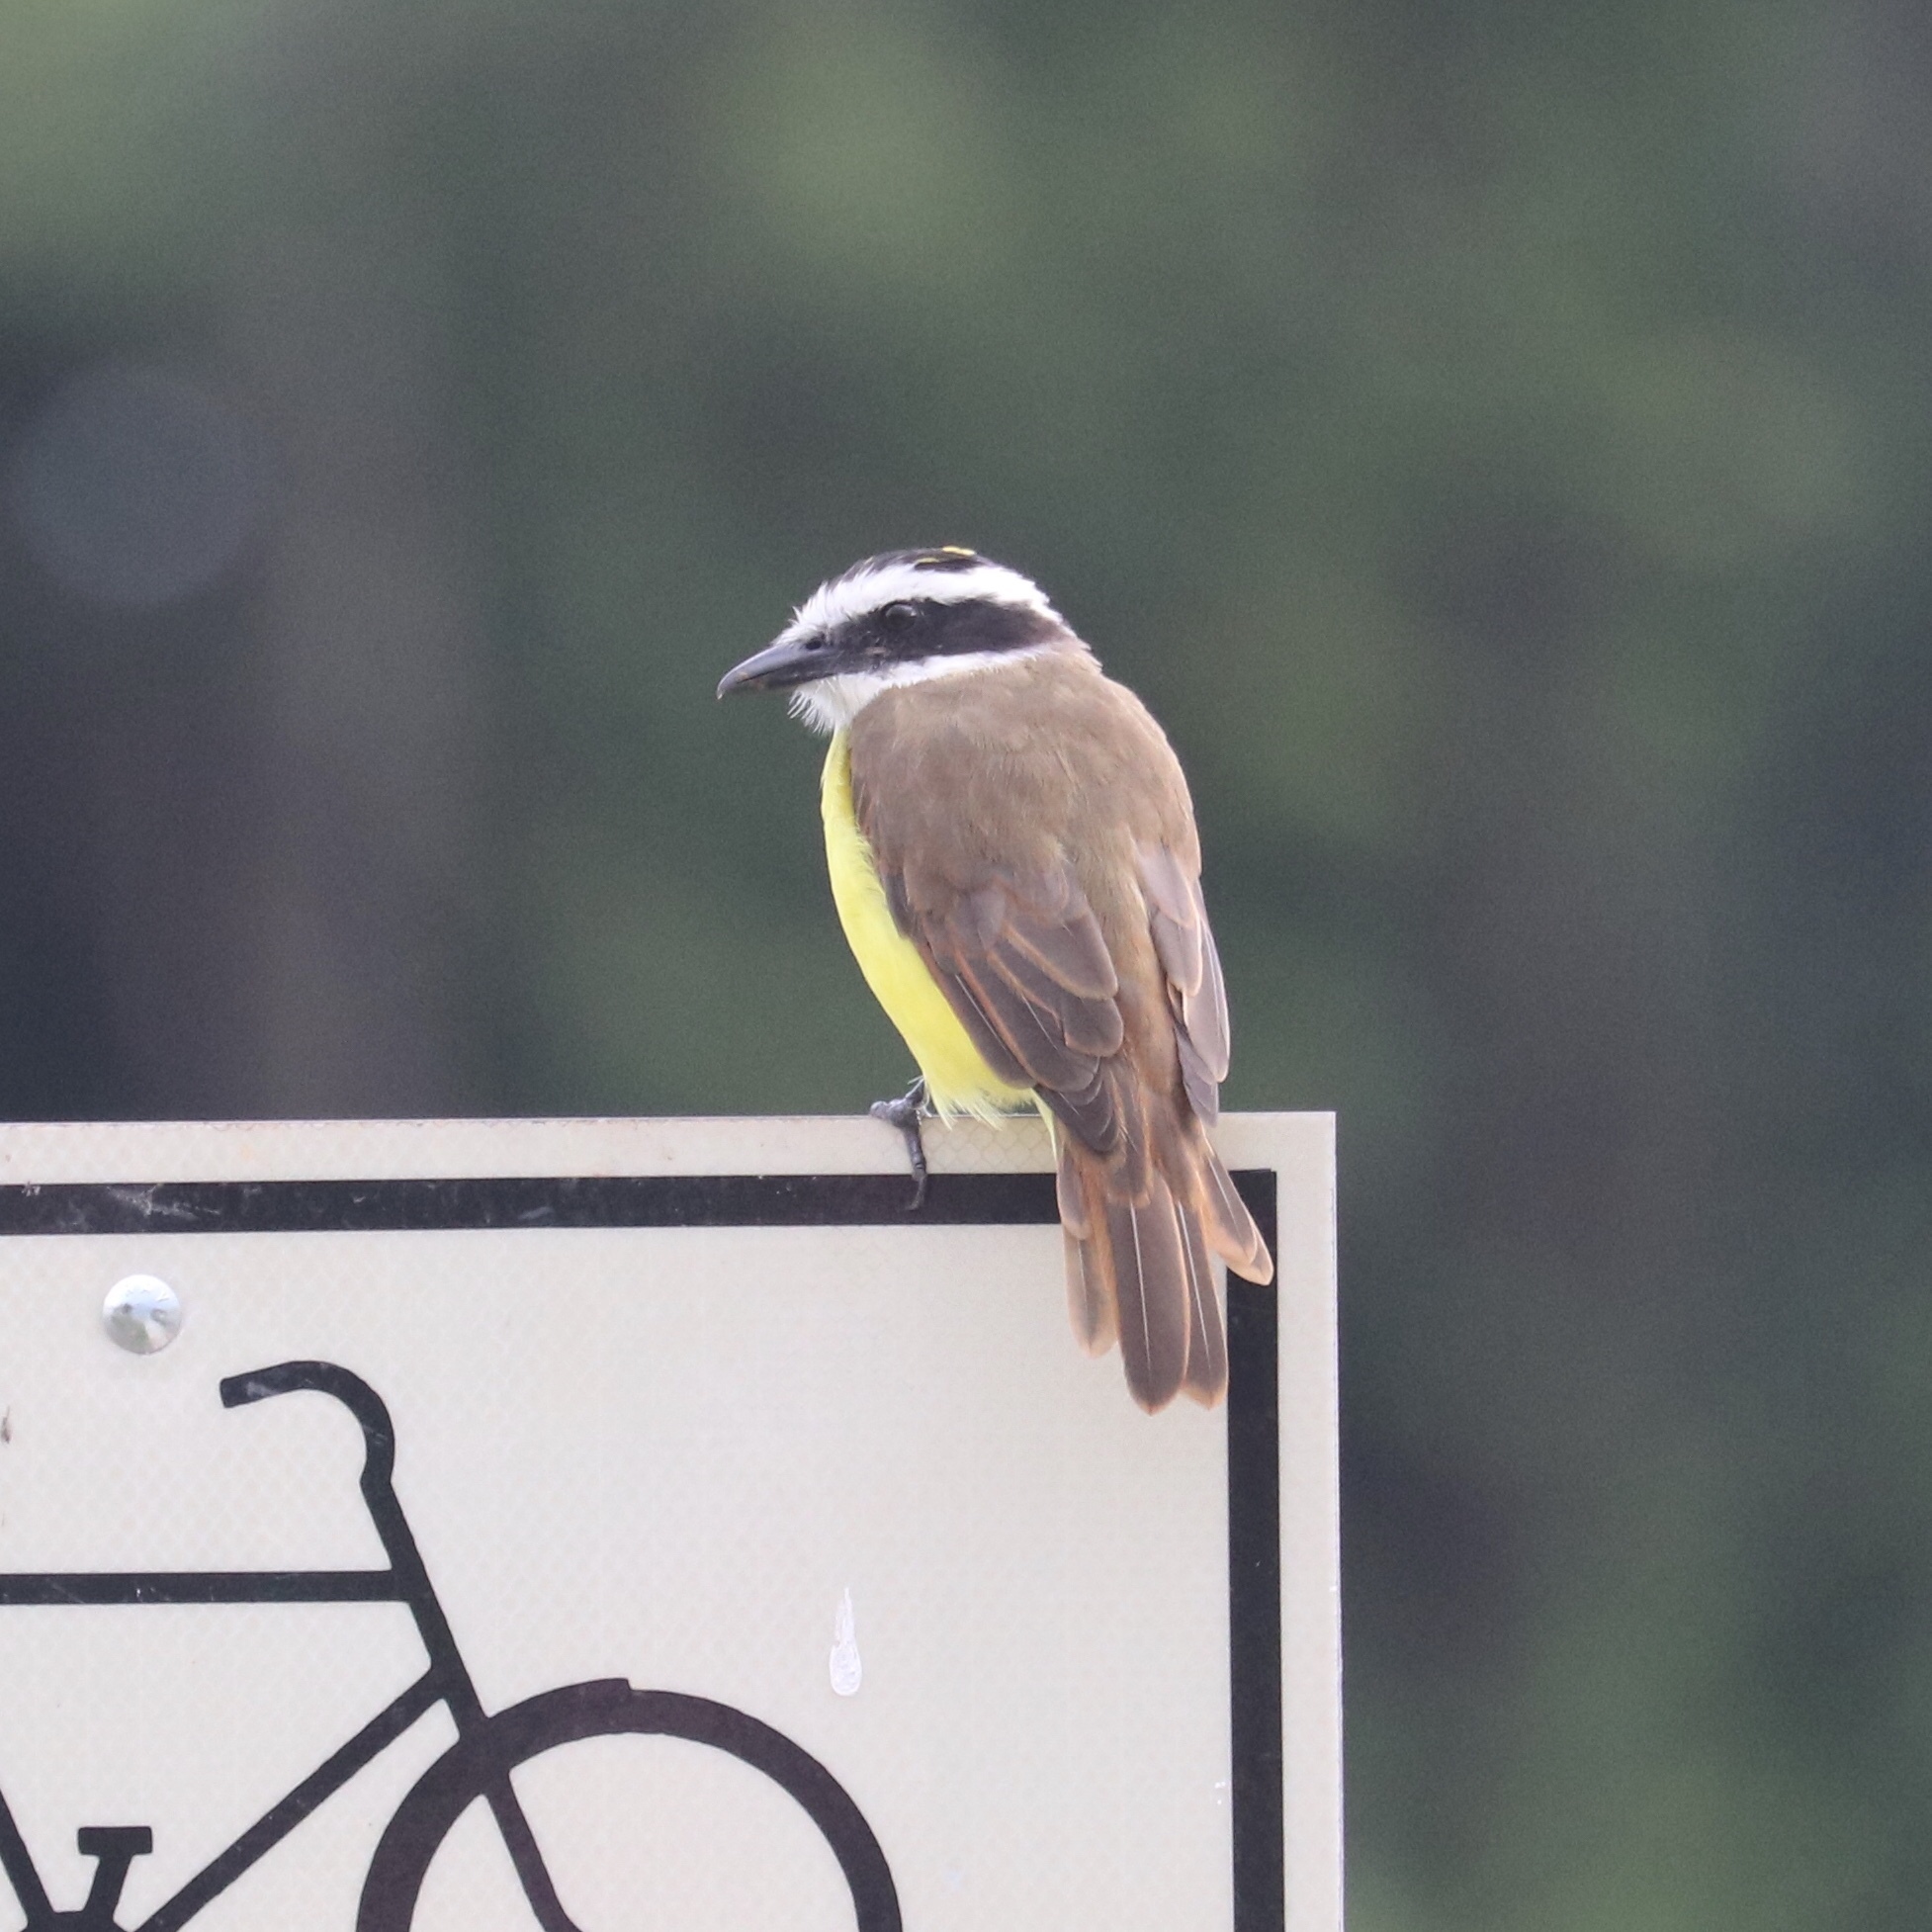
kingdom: Animalia
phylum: Chordata
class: Aves
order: Passeriformes
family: Tyrannidae
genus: Pitangus
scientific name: Pitangus sulphuratus
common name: Great kiskadee
